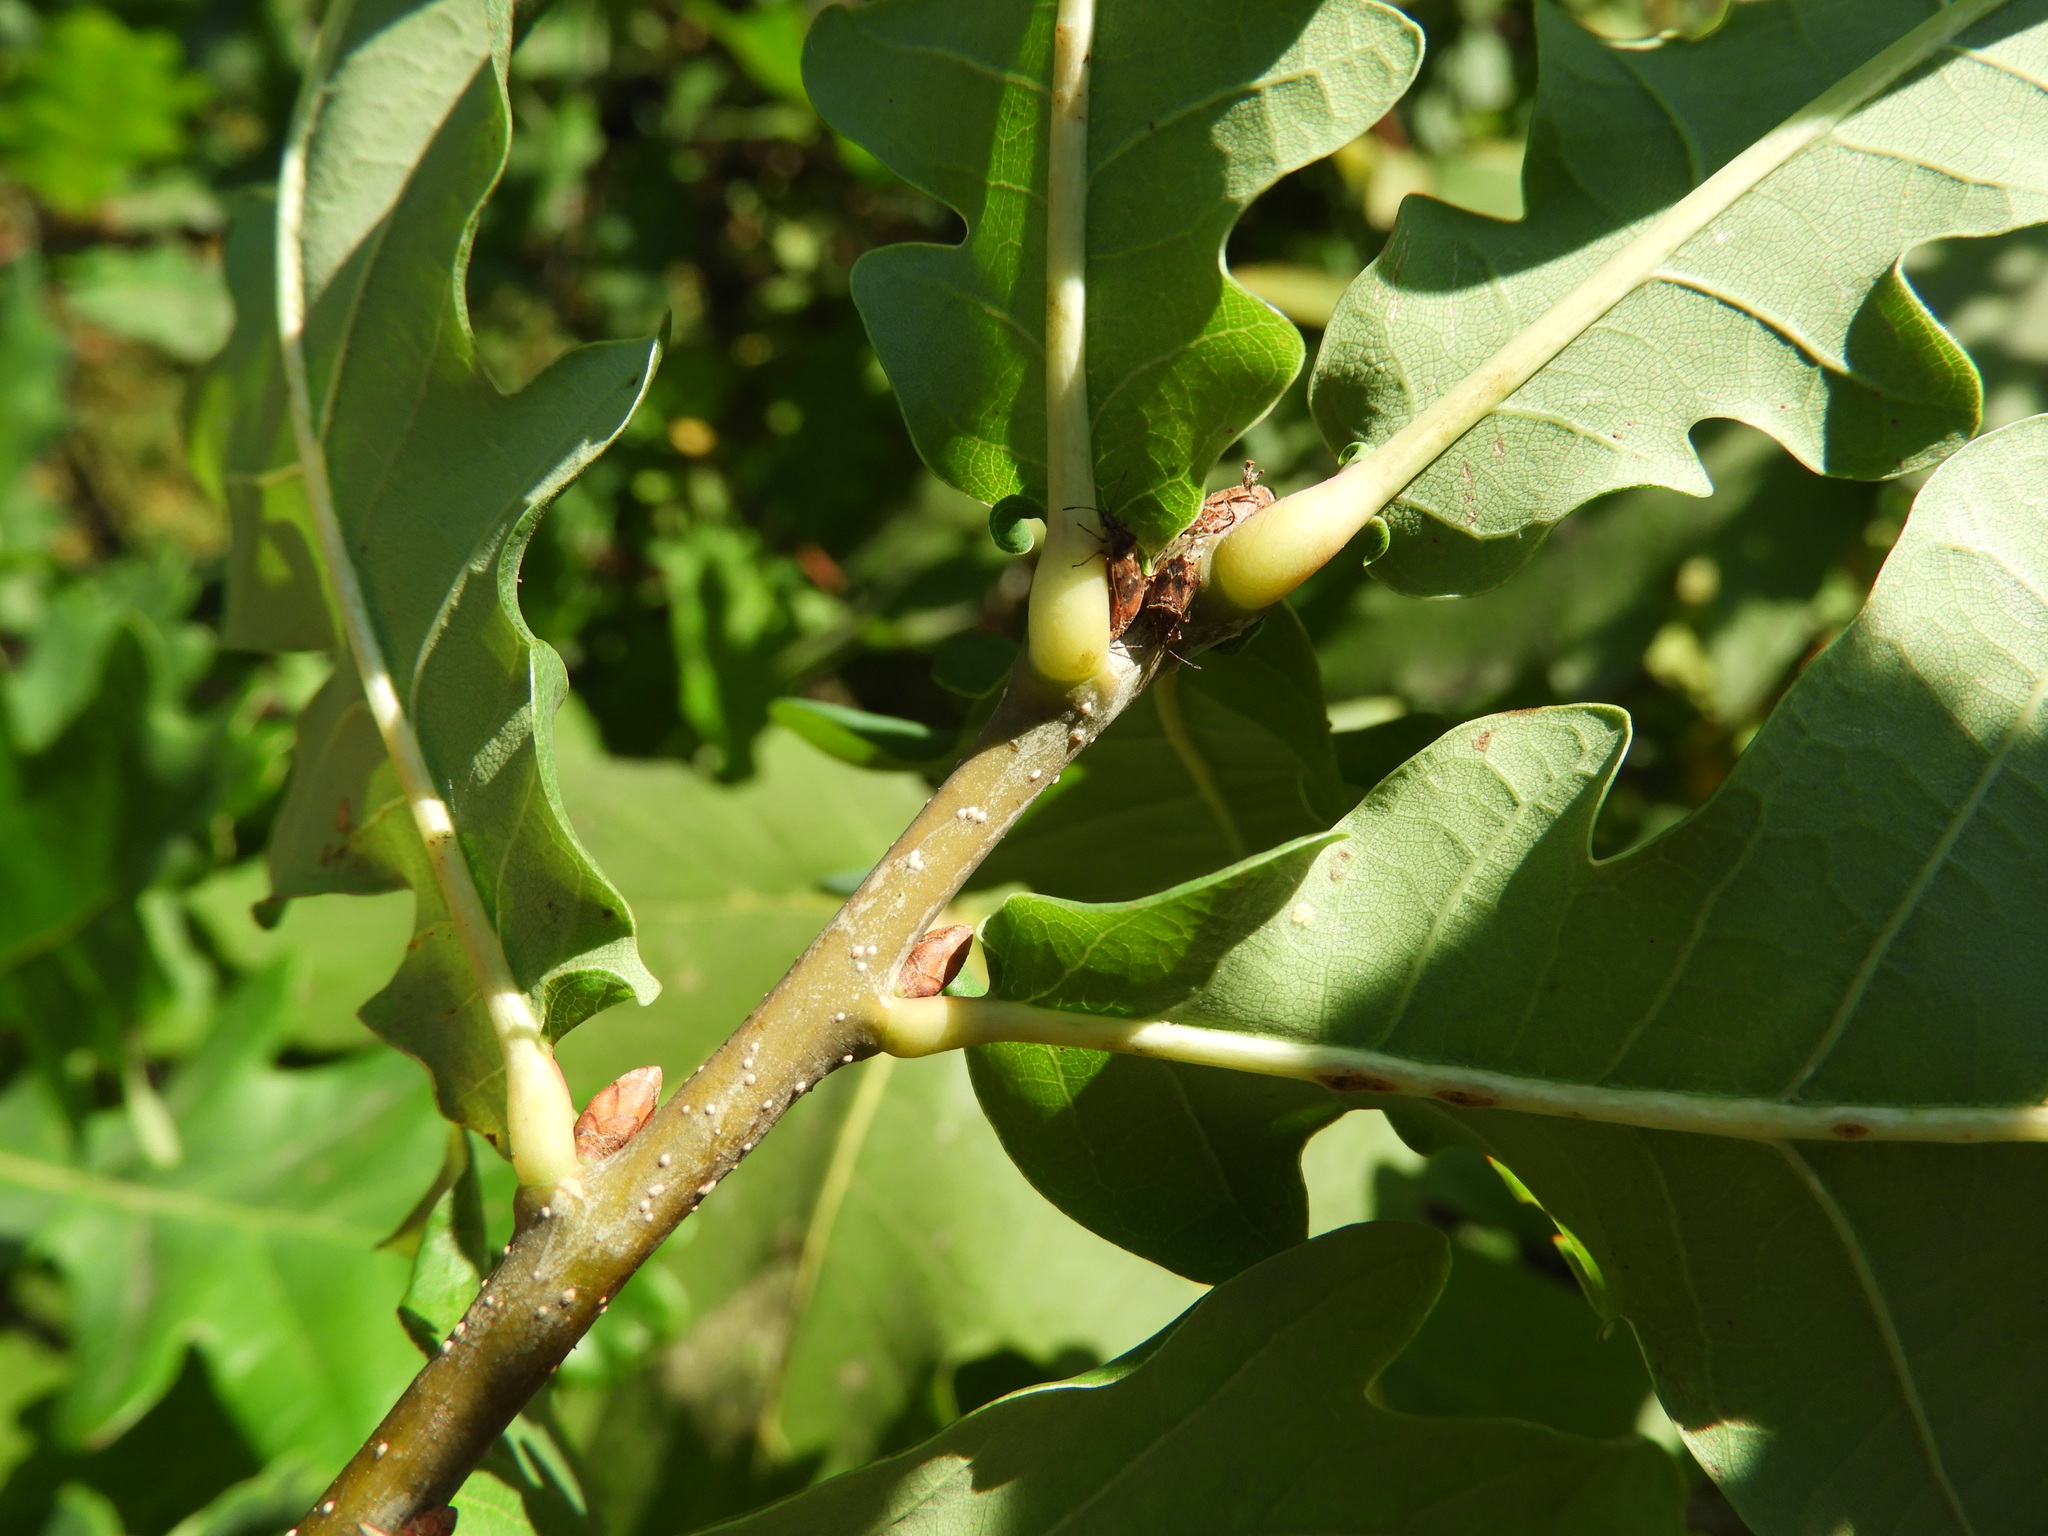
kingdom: Plantae
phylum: Tracheophyta
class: Magnoliopsida
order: Fagales
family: Fagaceae
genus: Quercus
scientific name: Quercus robur
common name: Pedunculate oak
